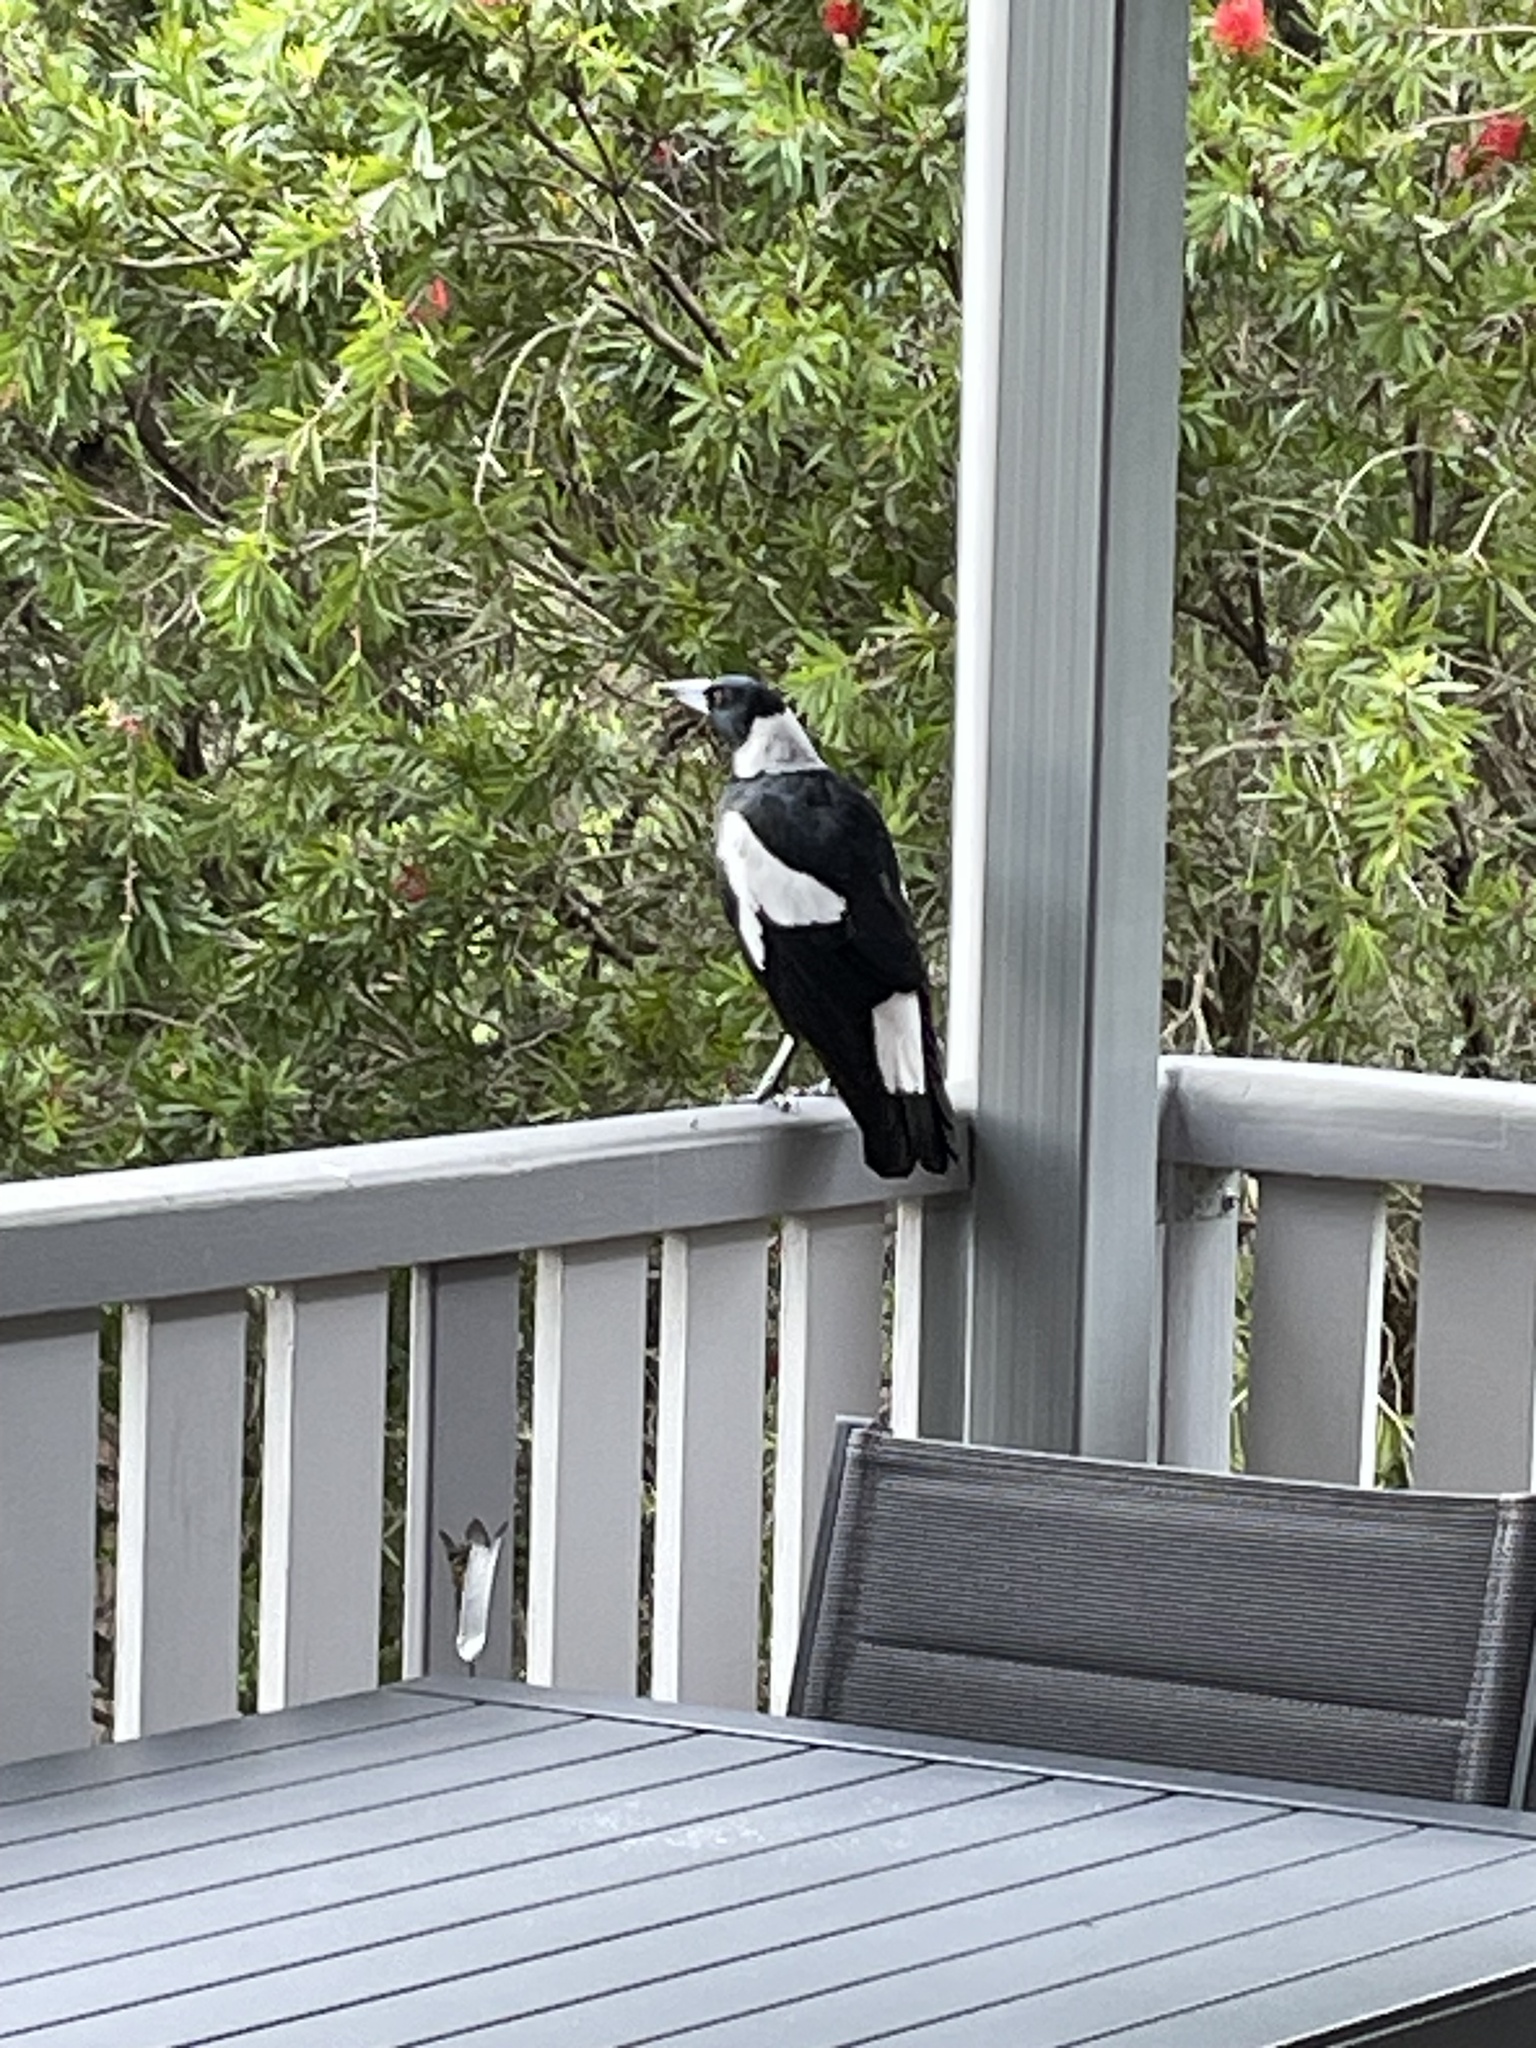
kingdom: Animalia
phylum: Chordata
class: Aves
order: Passeriformes
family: Cracticidae
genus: Gymnorhina
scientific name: Gymnorhina tibicen
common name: Australian magpie
